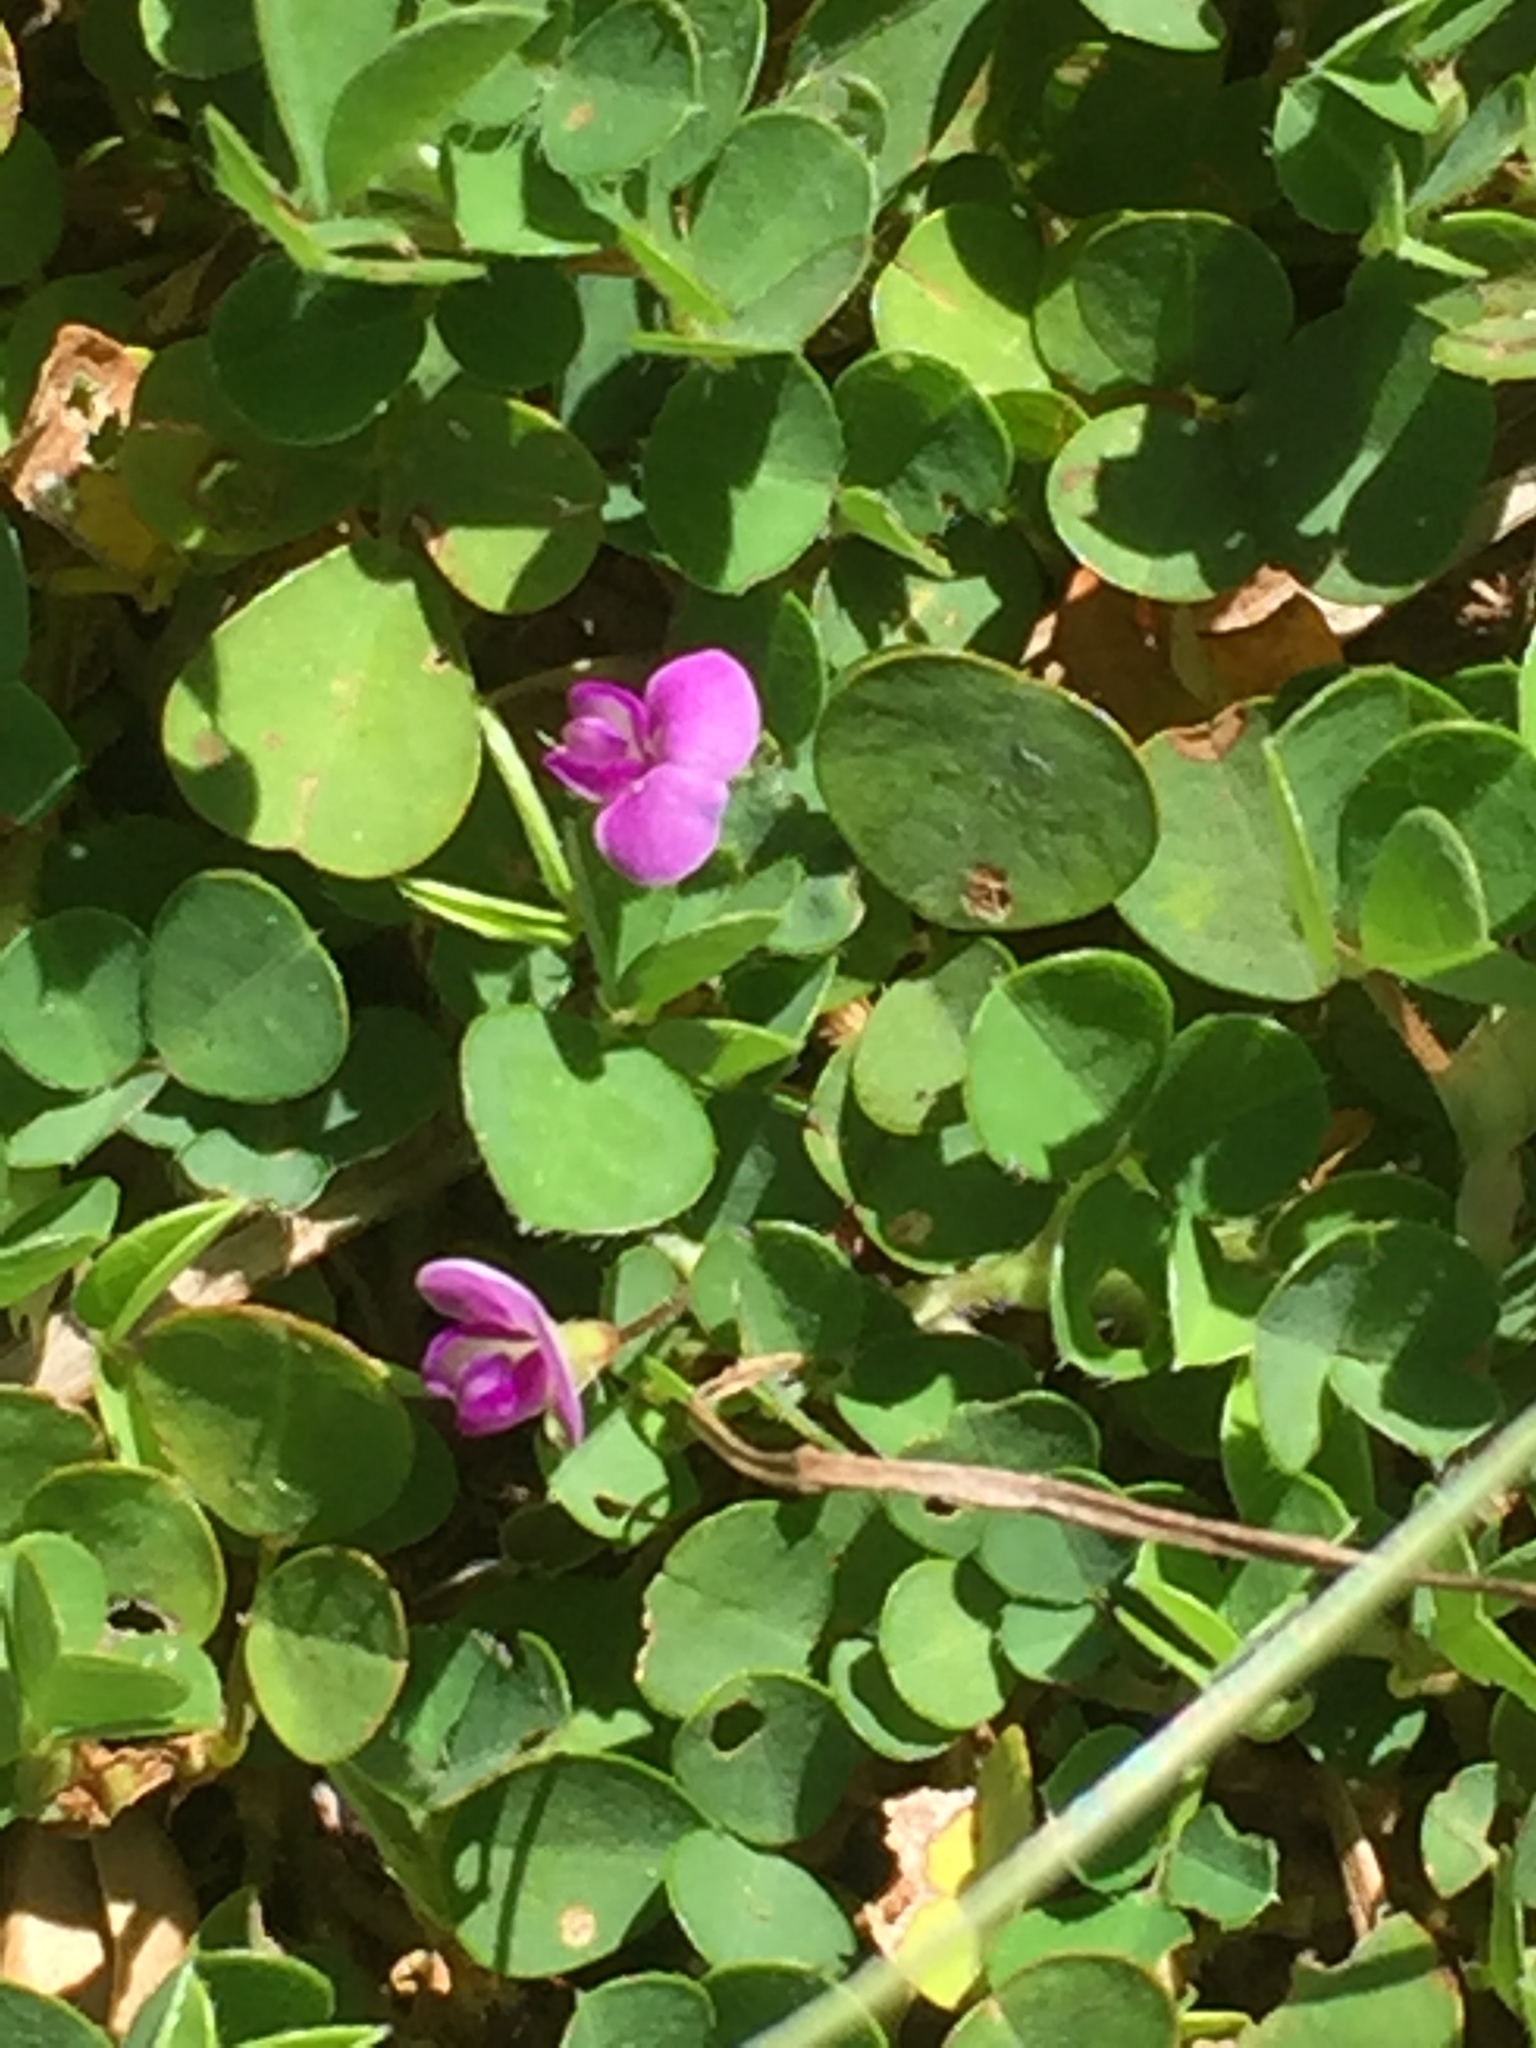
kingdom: Plantae
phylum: Tracheophyta
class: Magnoliopsida
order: Fabales
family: Fabaceae
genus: Grona
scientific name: Grona triflora
